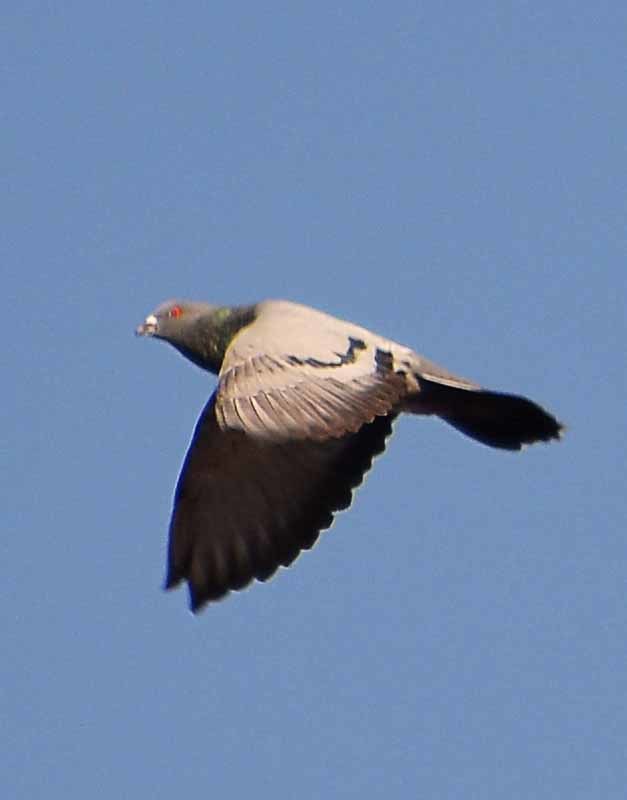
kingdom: Animalia
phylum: Chordata
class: Aves
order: Columbiformes
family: Columbidae
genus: Columba
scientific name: Columba livia
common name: Rock pigeon
